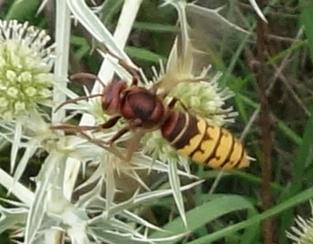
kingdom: Animalia
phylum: Arthropoda
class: Insecta
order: Hymenoptera
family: Vespidae
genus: Vespa
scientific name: Vespa crabro
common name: Hornet
